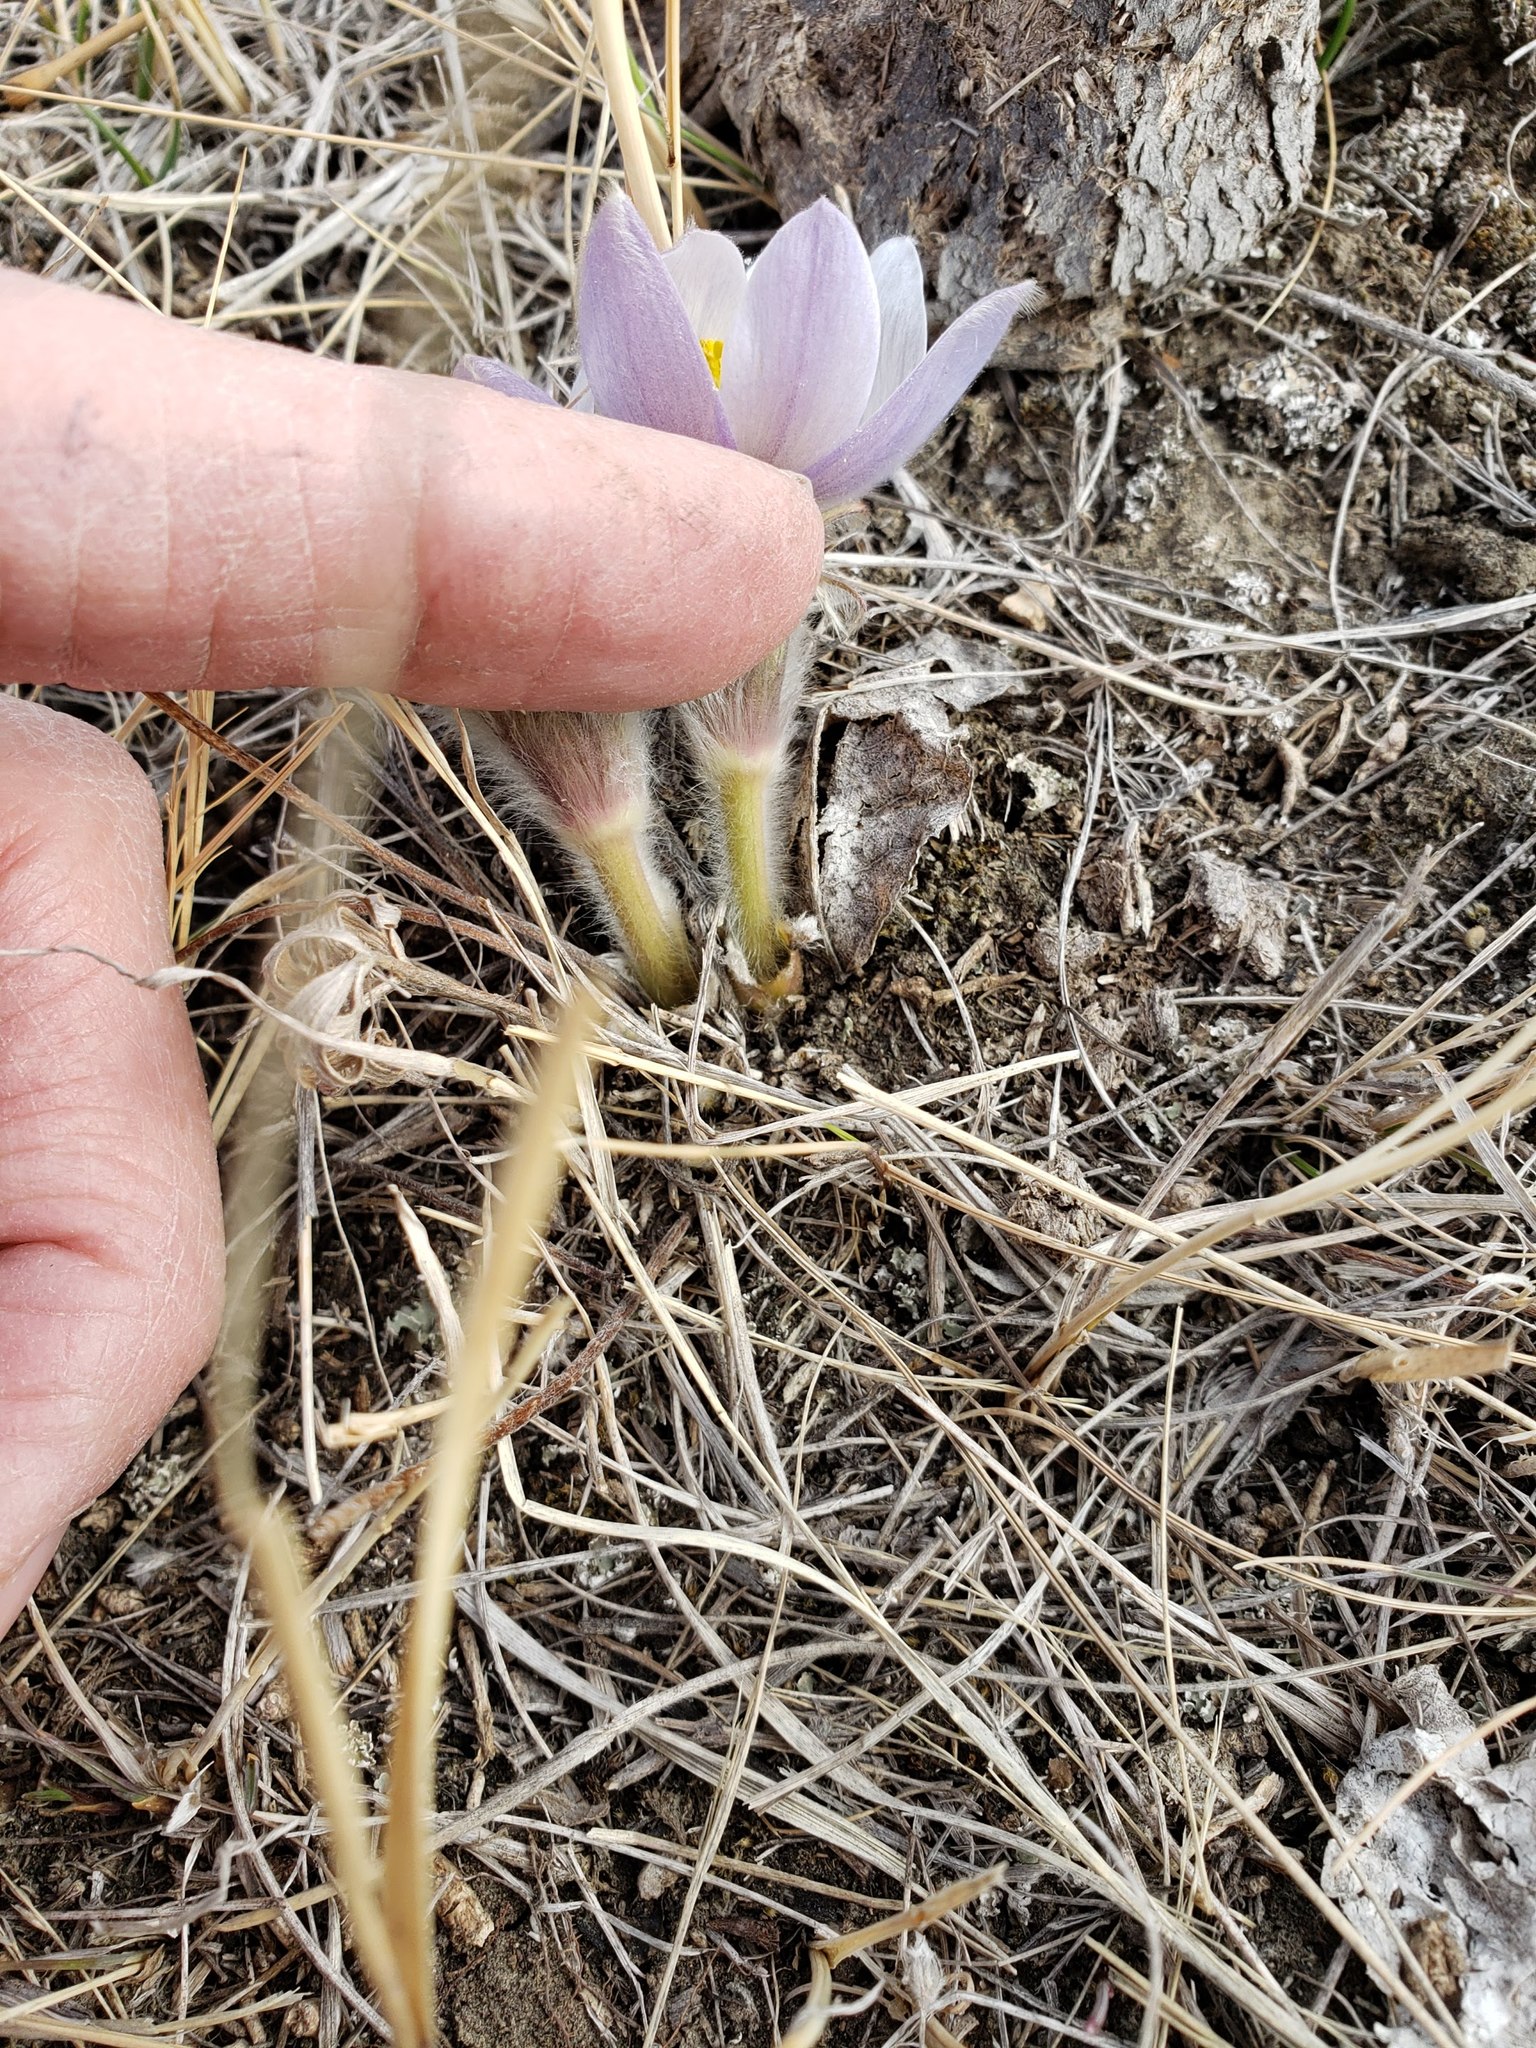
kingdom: Plantae
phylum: Tracheophyta
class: Magnoliopsida
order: Ranunculales
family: Ranunculaceae
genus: Pulsatilla
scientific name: Pulsatilla nuttalliana
